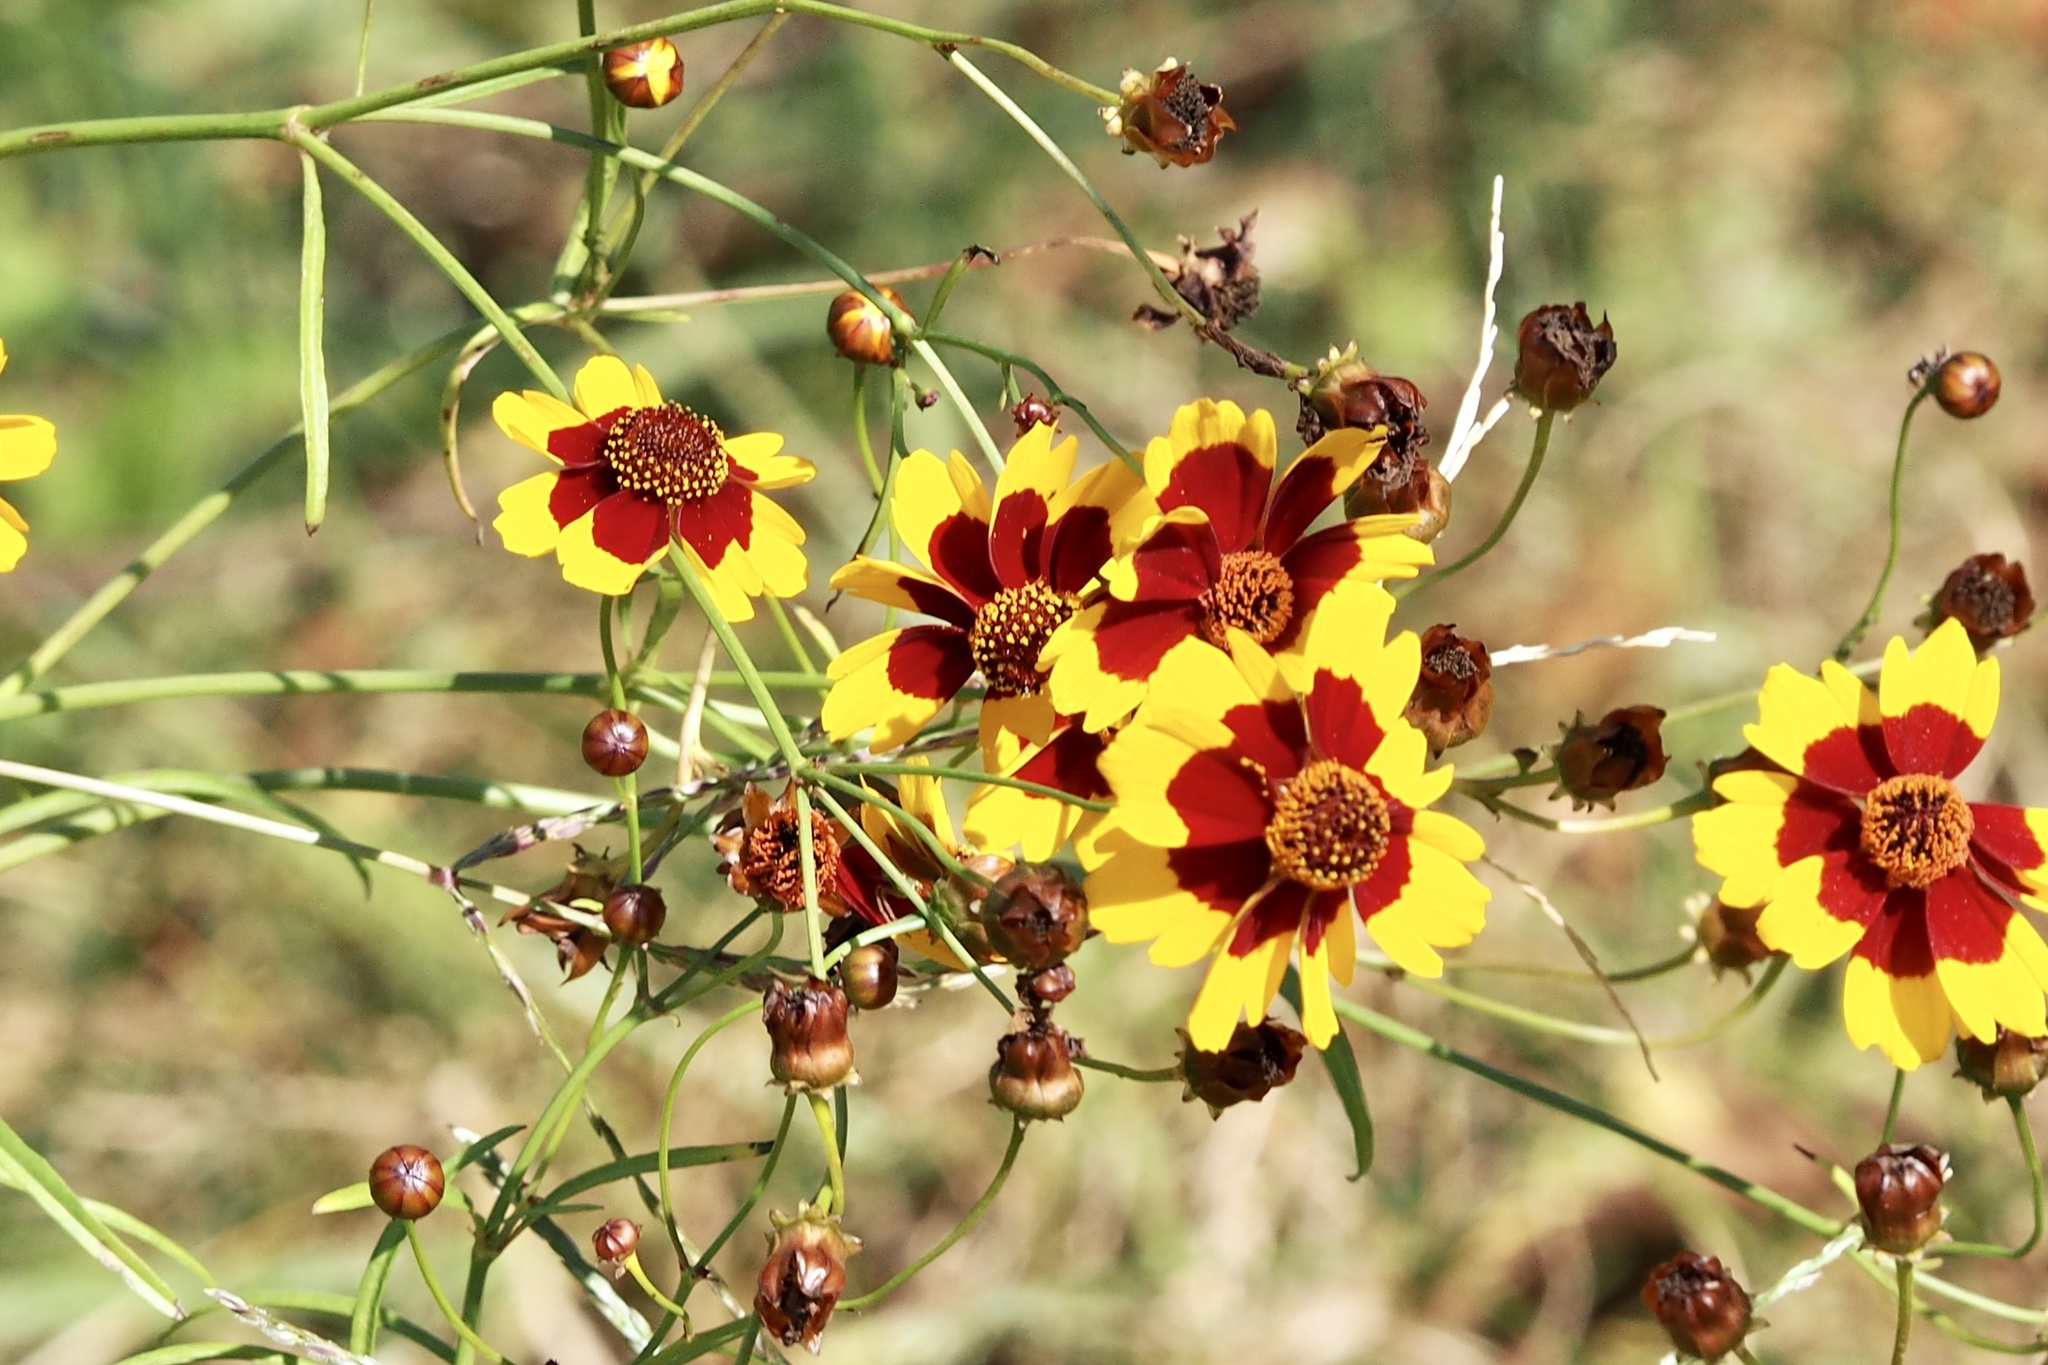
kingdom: Plantae
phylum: Tracheophyta
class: Magnoliopsida
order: Asterales
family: Asteraceae
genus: Coreopsis
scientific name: Coreopsis tinctoria
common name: Garden tickseed
